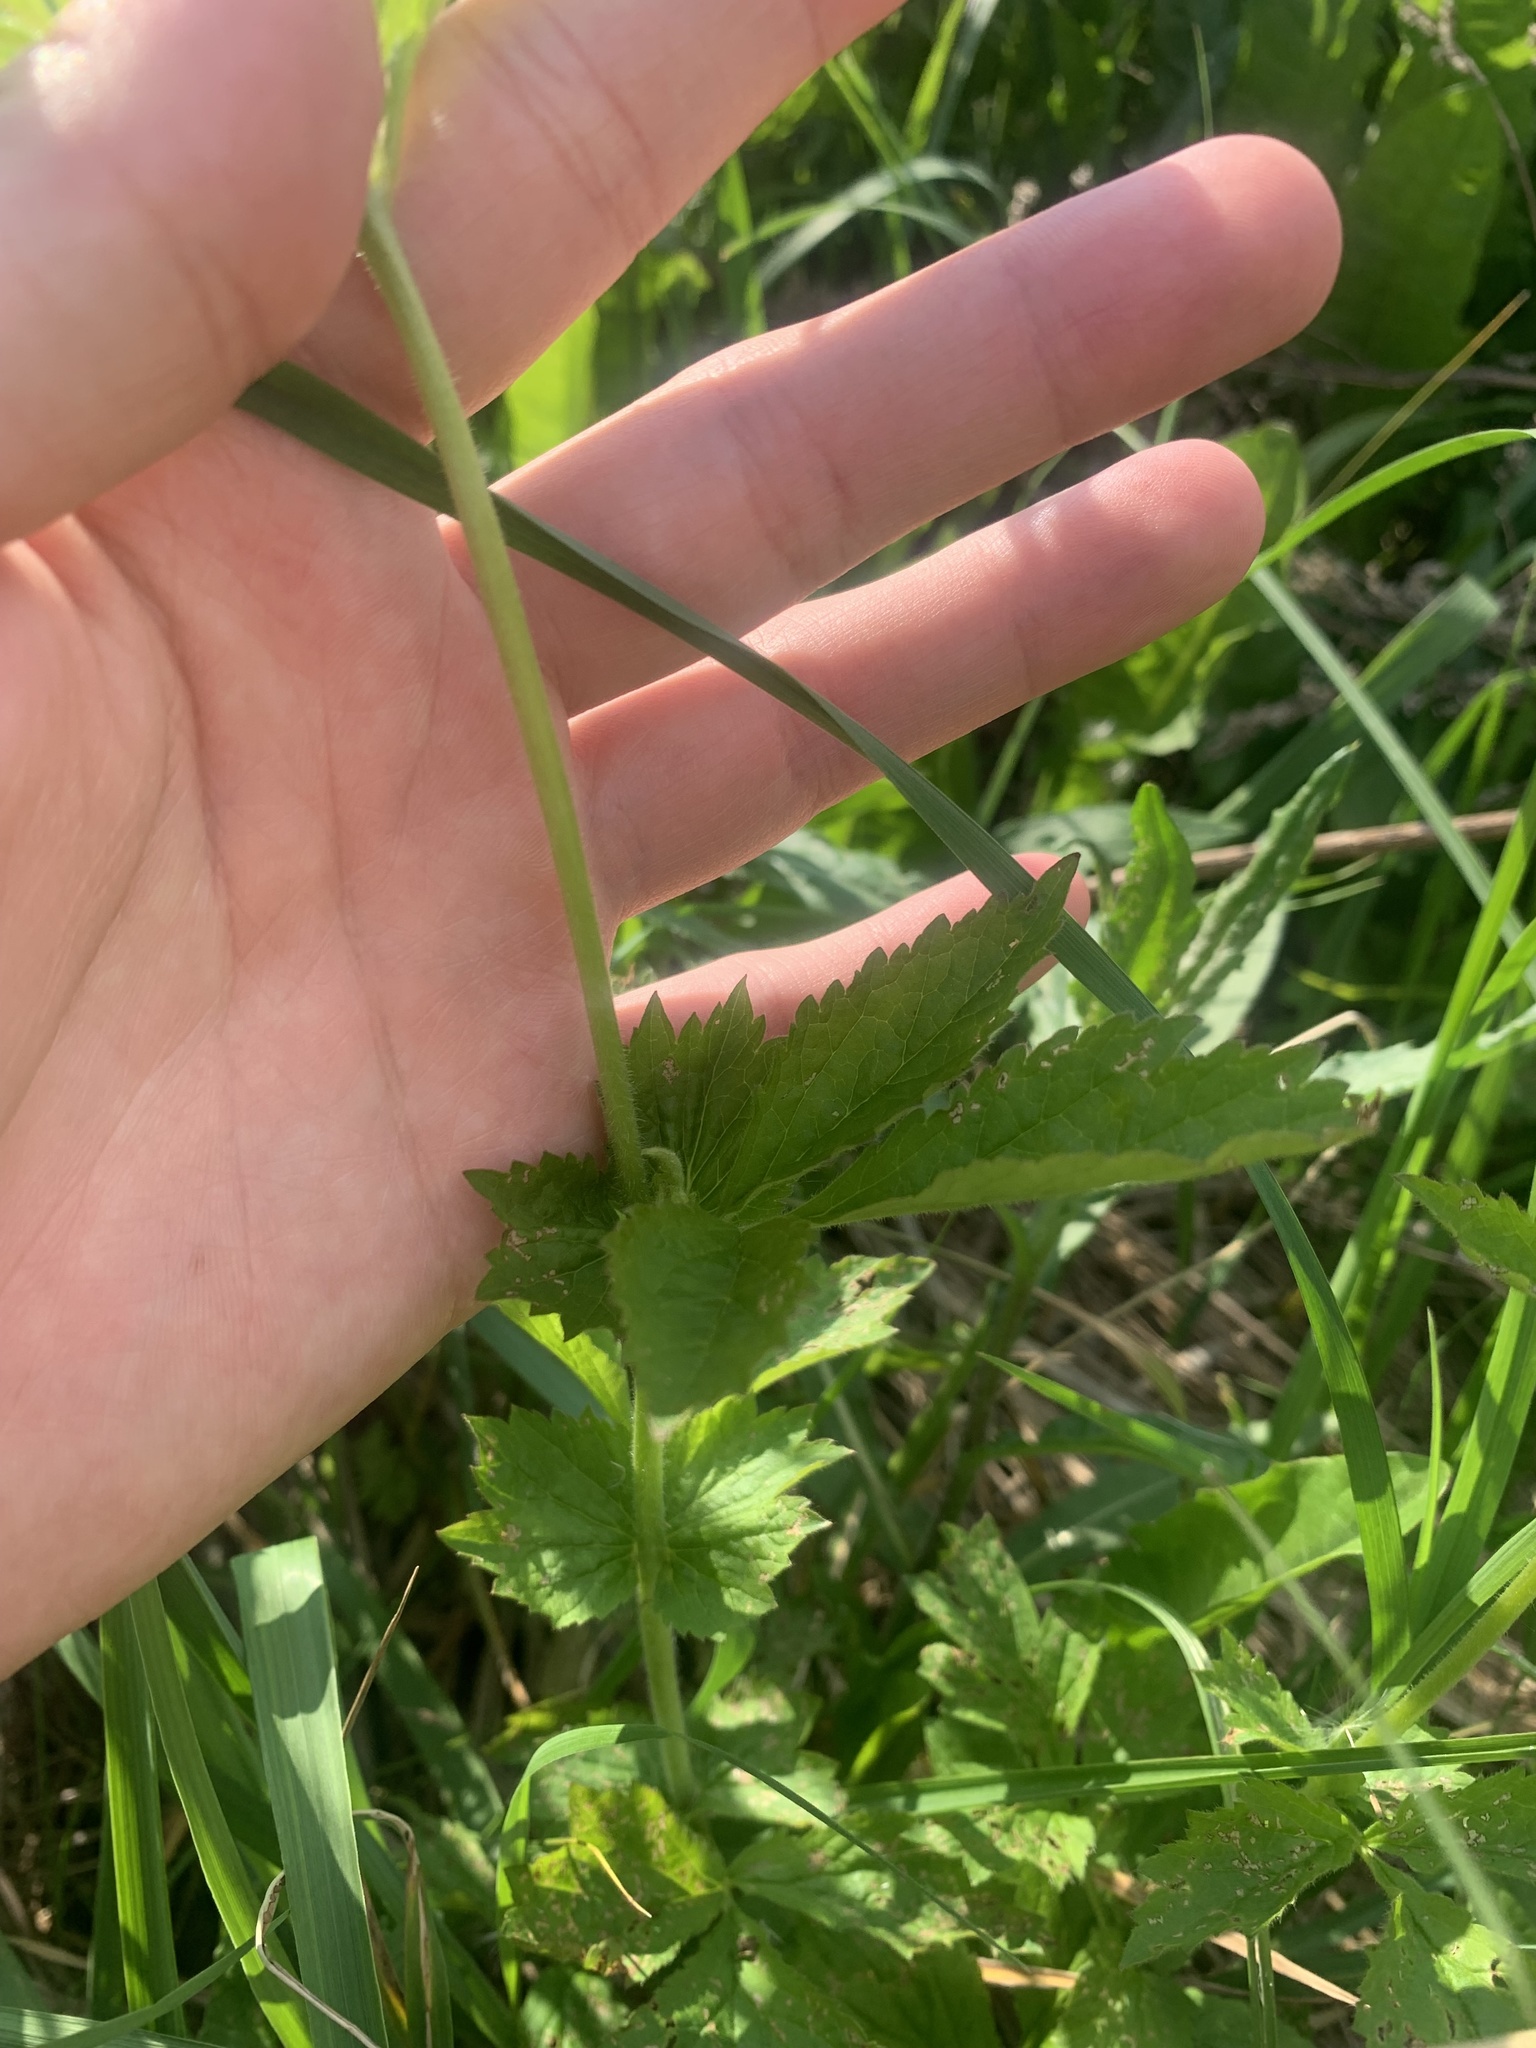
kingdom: Plantae
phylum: Tracheophyta
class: Magnoliopsida
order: Rosales
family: Rosaceae
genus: Geum
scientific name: Geum urbanum
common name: Wood avens
